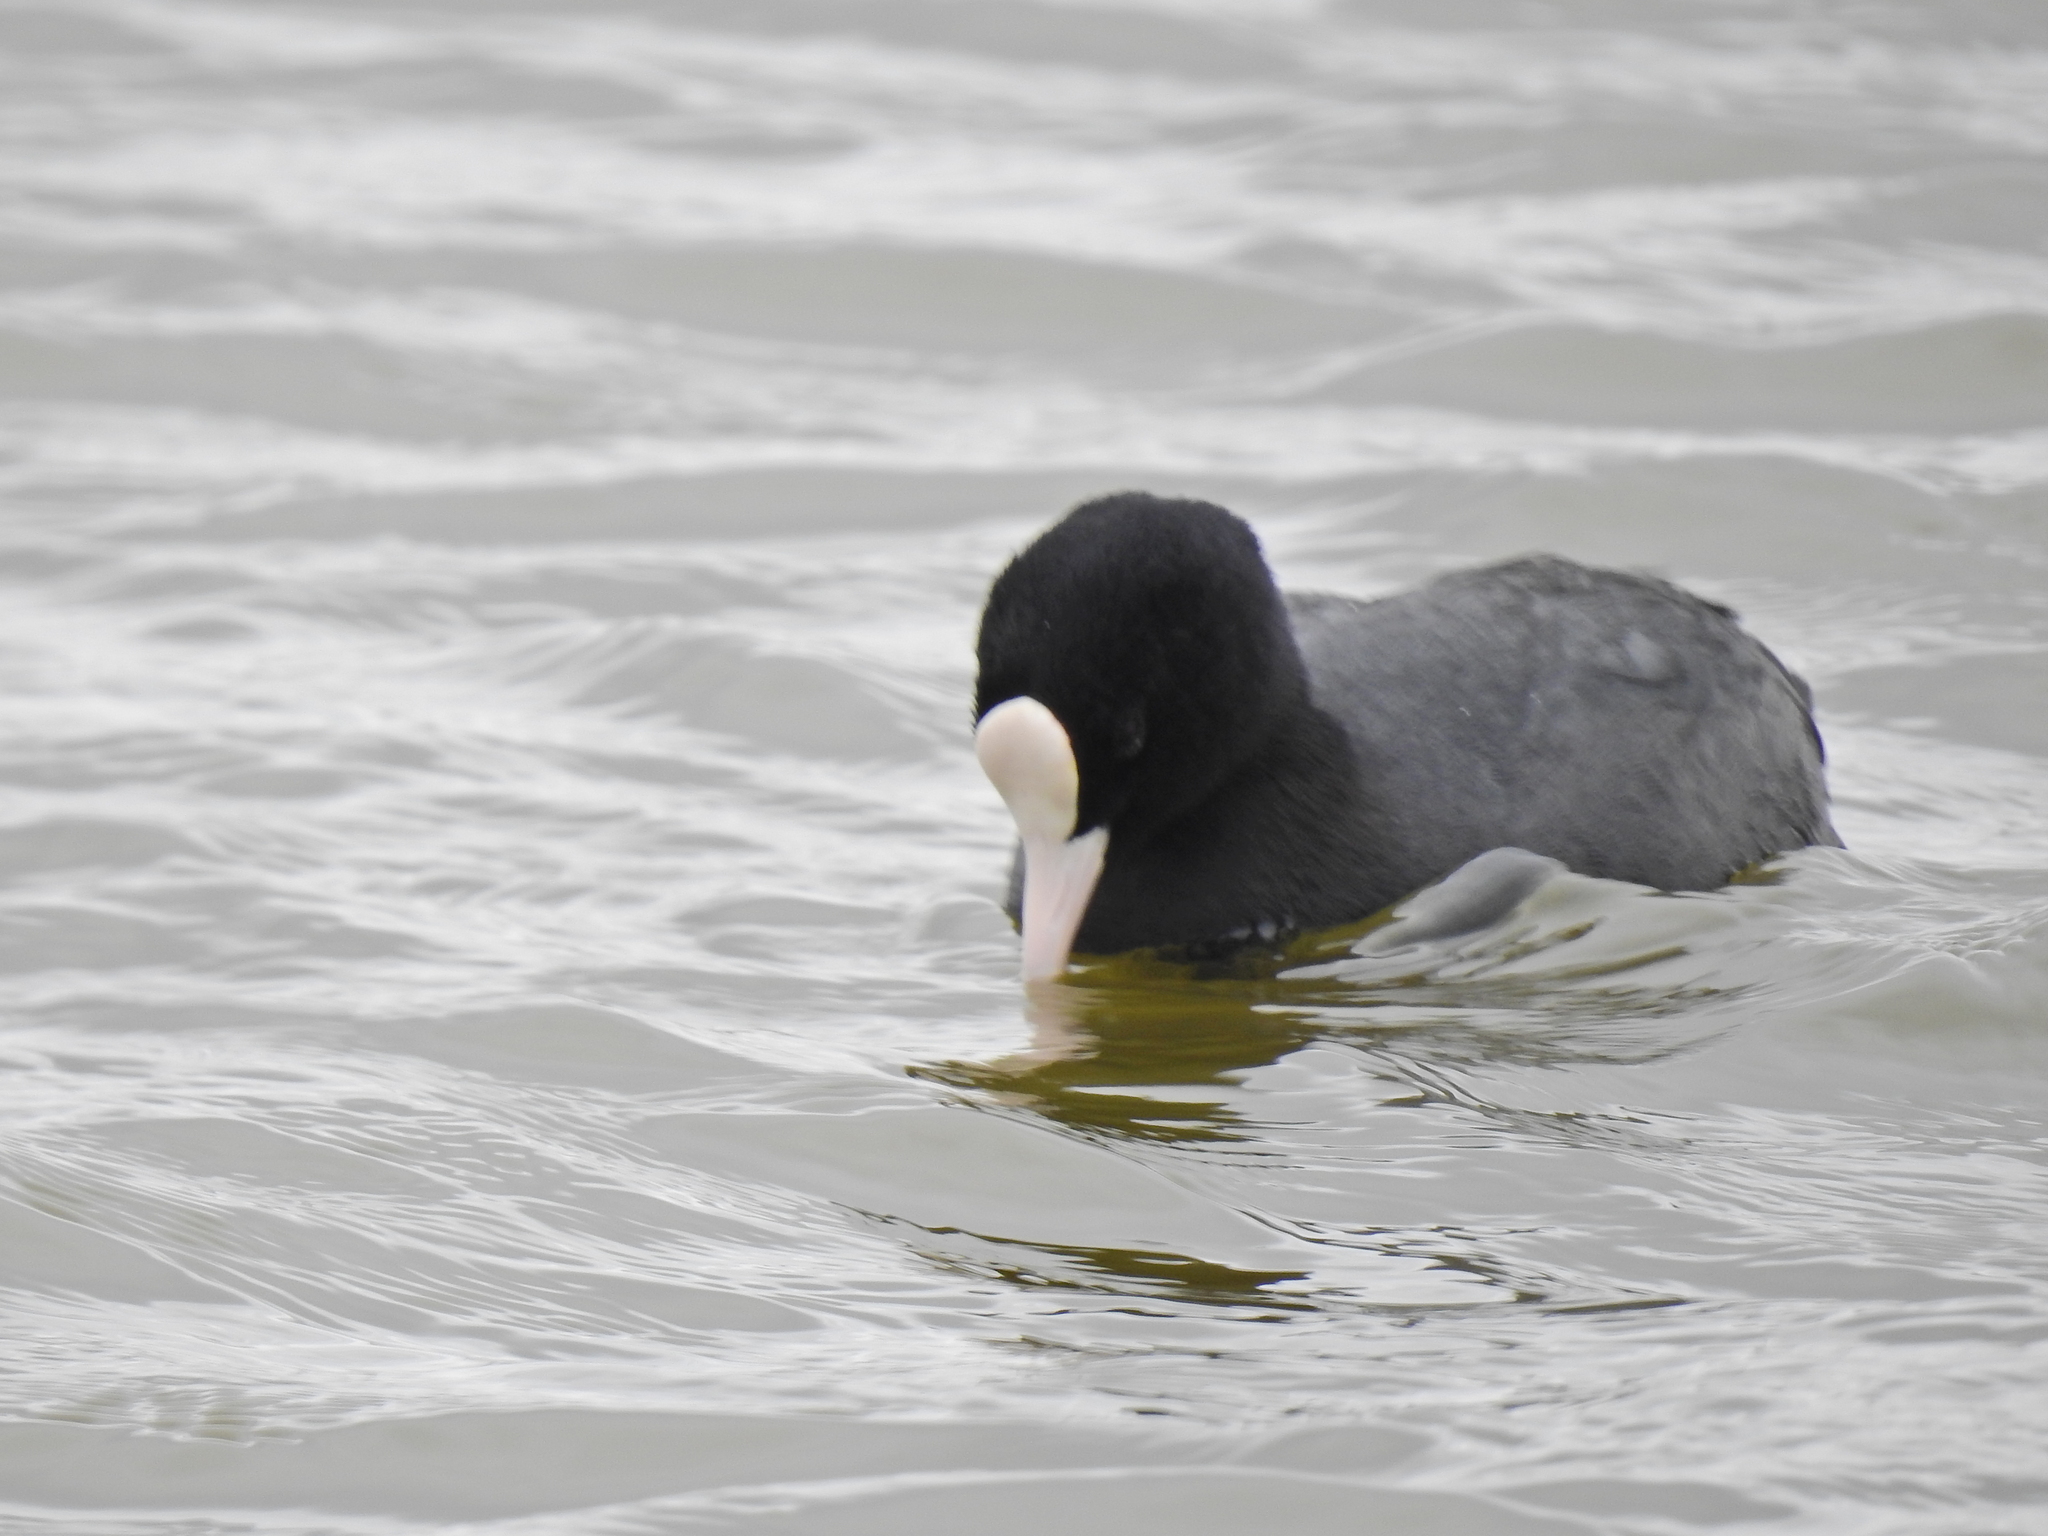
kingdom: Animalia
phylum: Chordata
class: Aves
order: Gruiformes
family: Rallidae
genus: Fulica
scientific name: Fulica atra
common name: Eurasian coot
